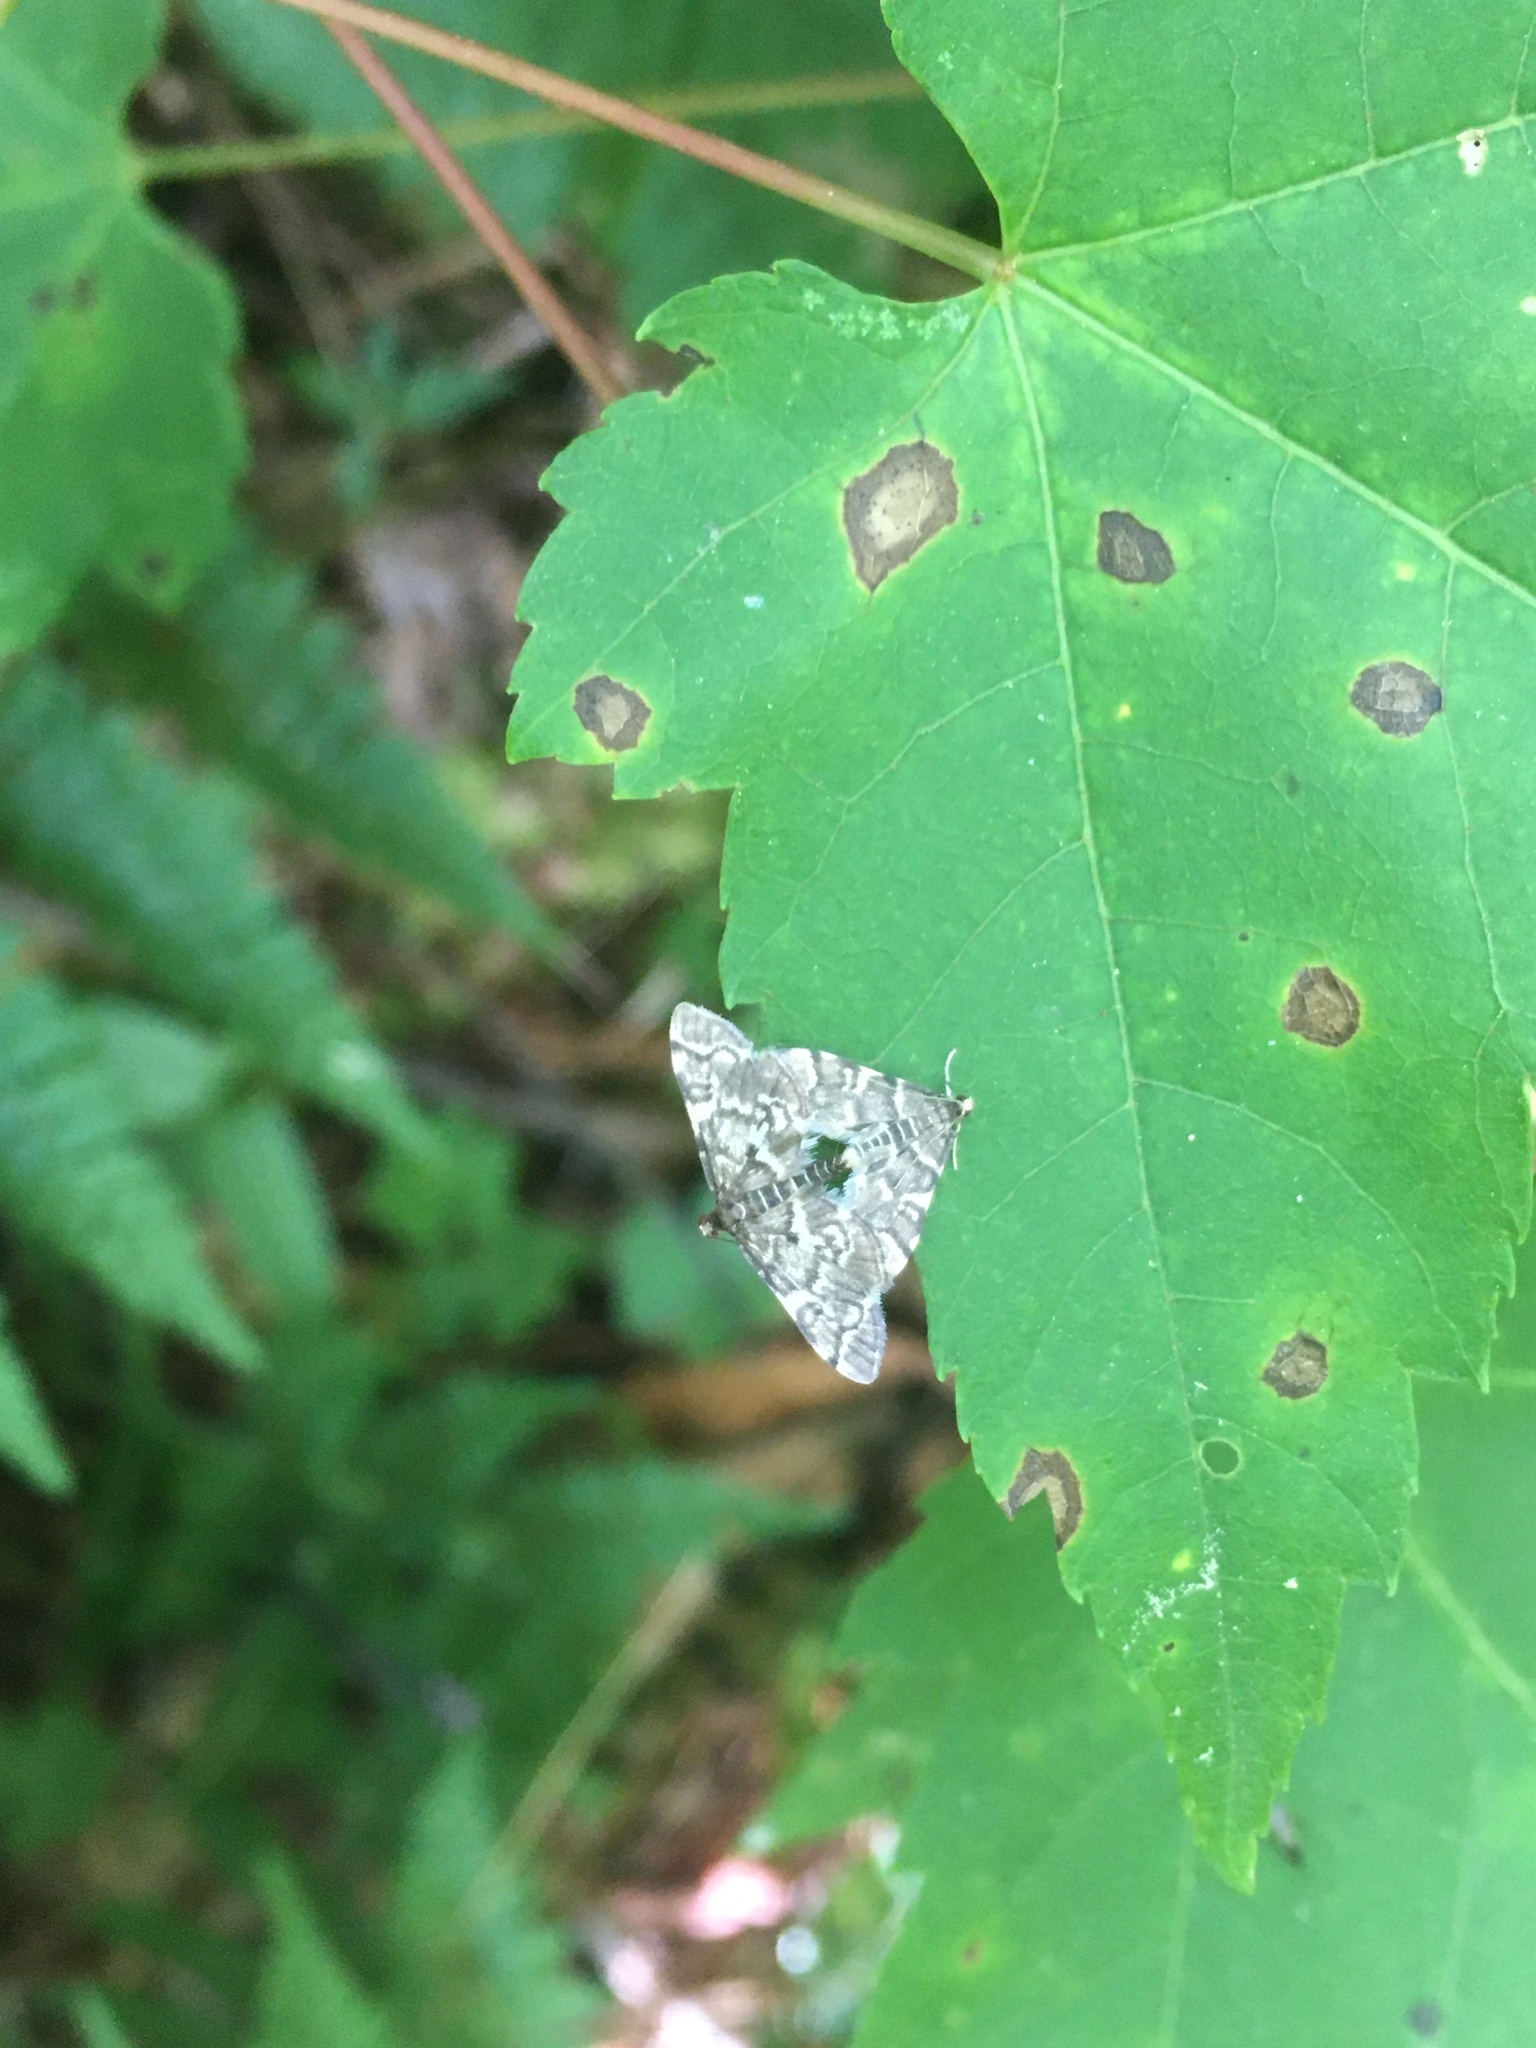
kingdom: Animalia
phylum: Arthropoda
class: Insecta
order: Lepidoptera
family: Crambidae
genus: Anageshna
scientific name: Anageshna primordialis
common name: Yellow-spotted webworm moth
